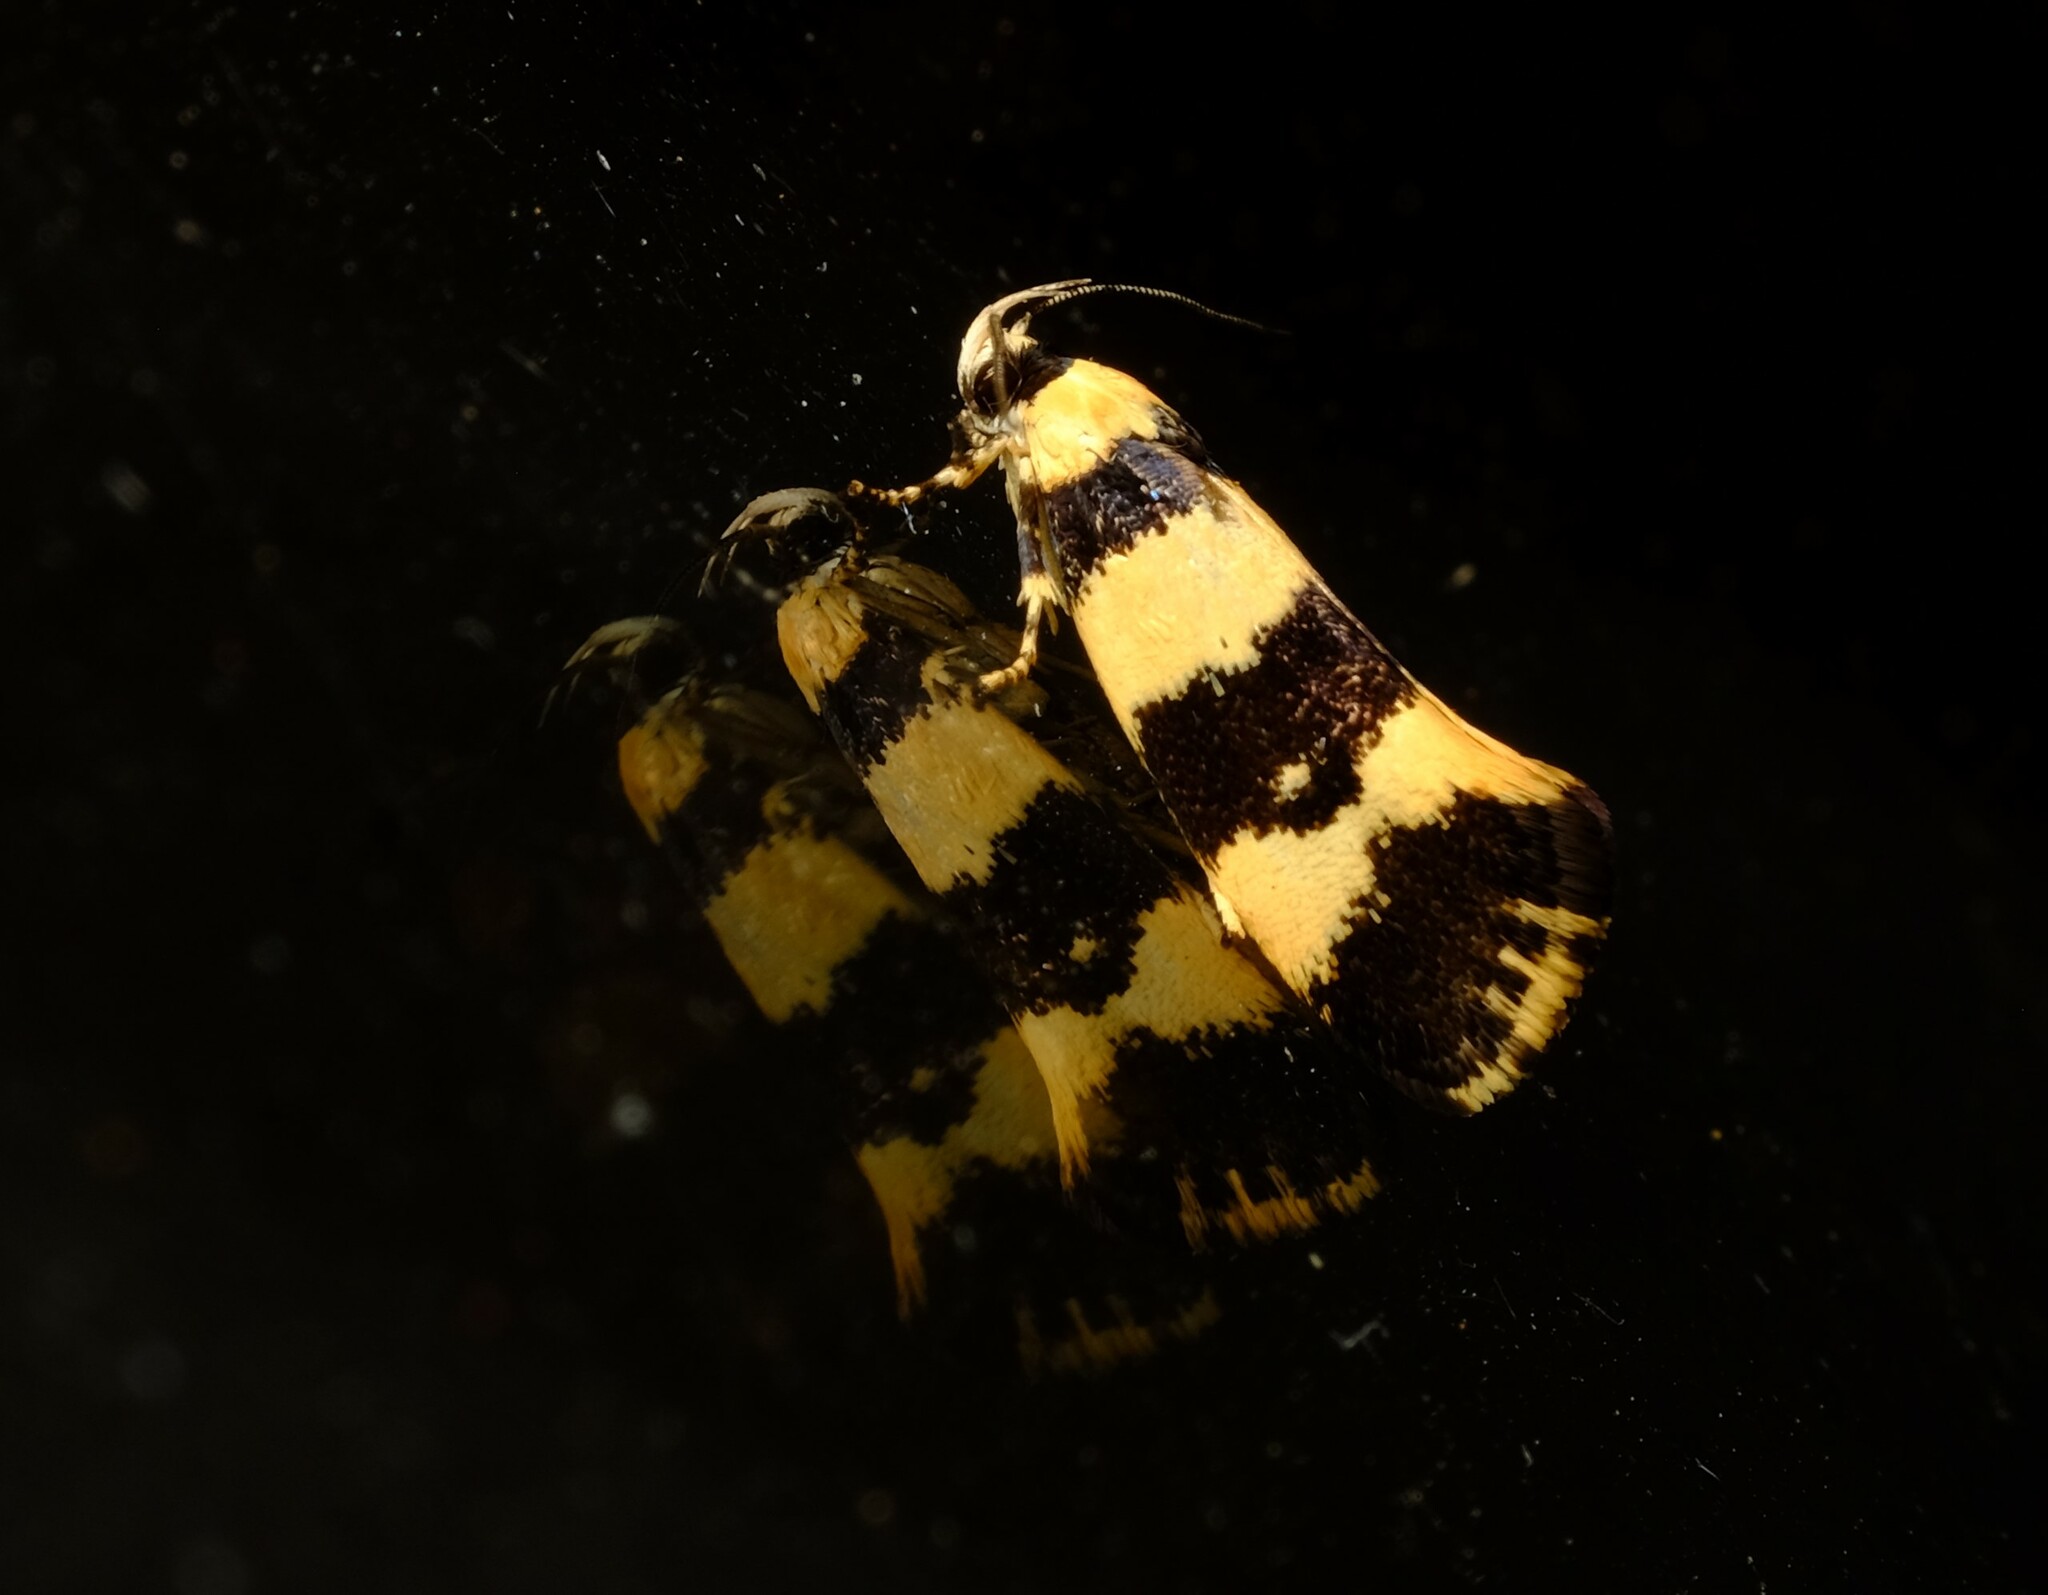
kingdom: Animalia
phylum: Arthropoda
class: Insecta
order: Lepidoptera
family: Xyloryctidae
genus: Lichenaula
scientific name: Lichenaula arisema
